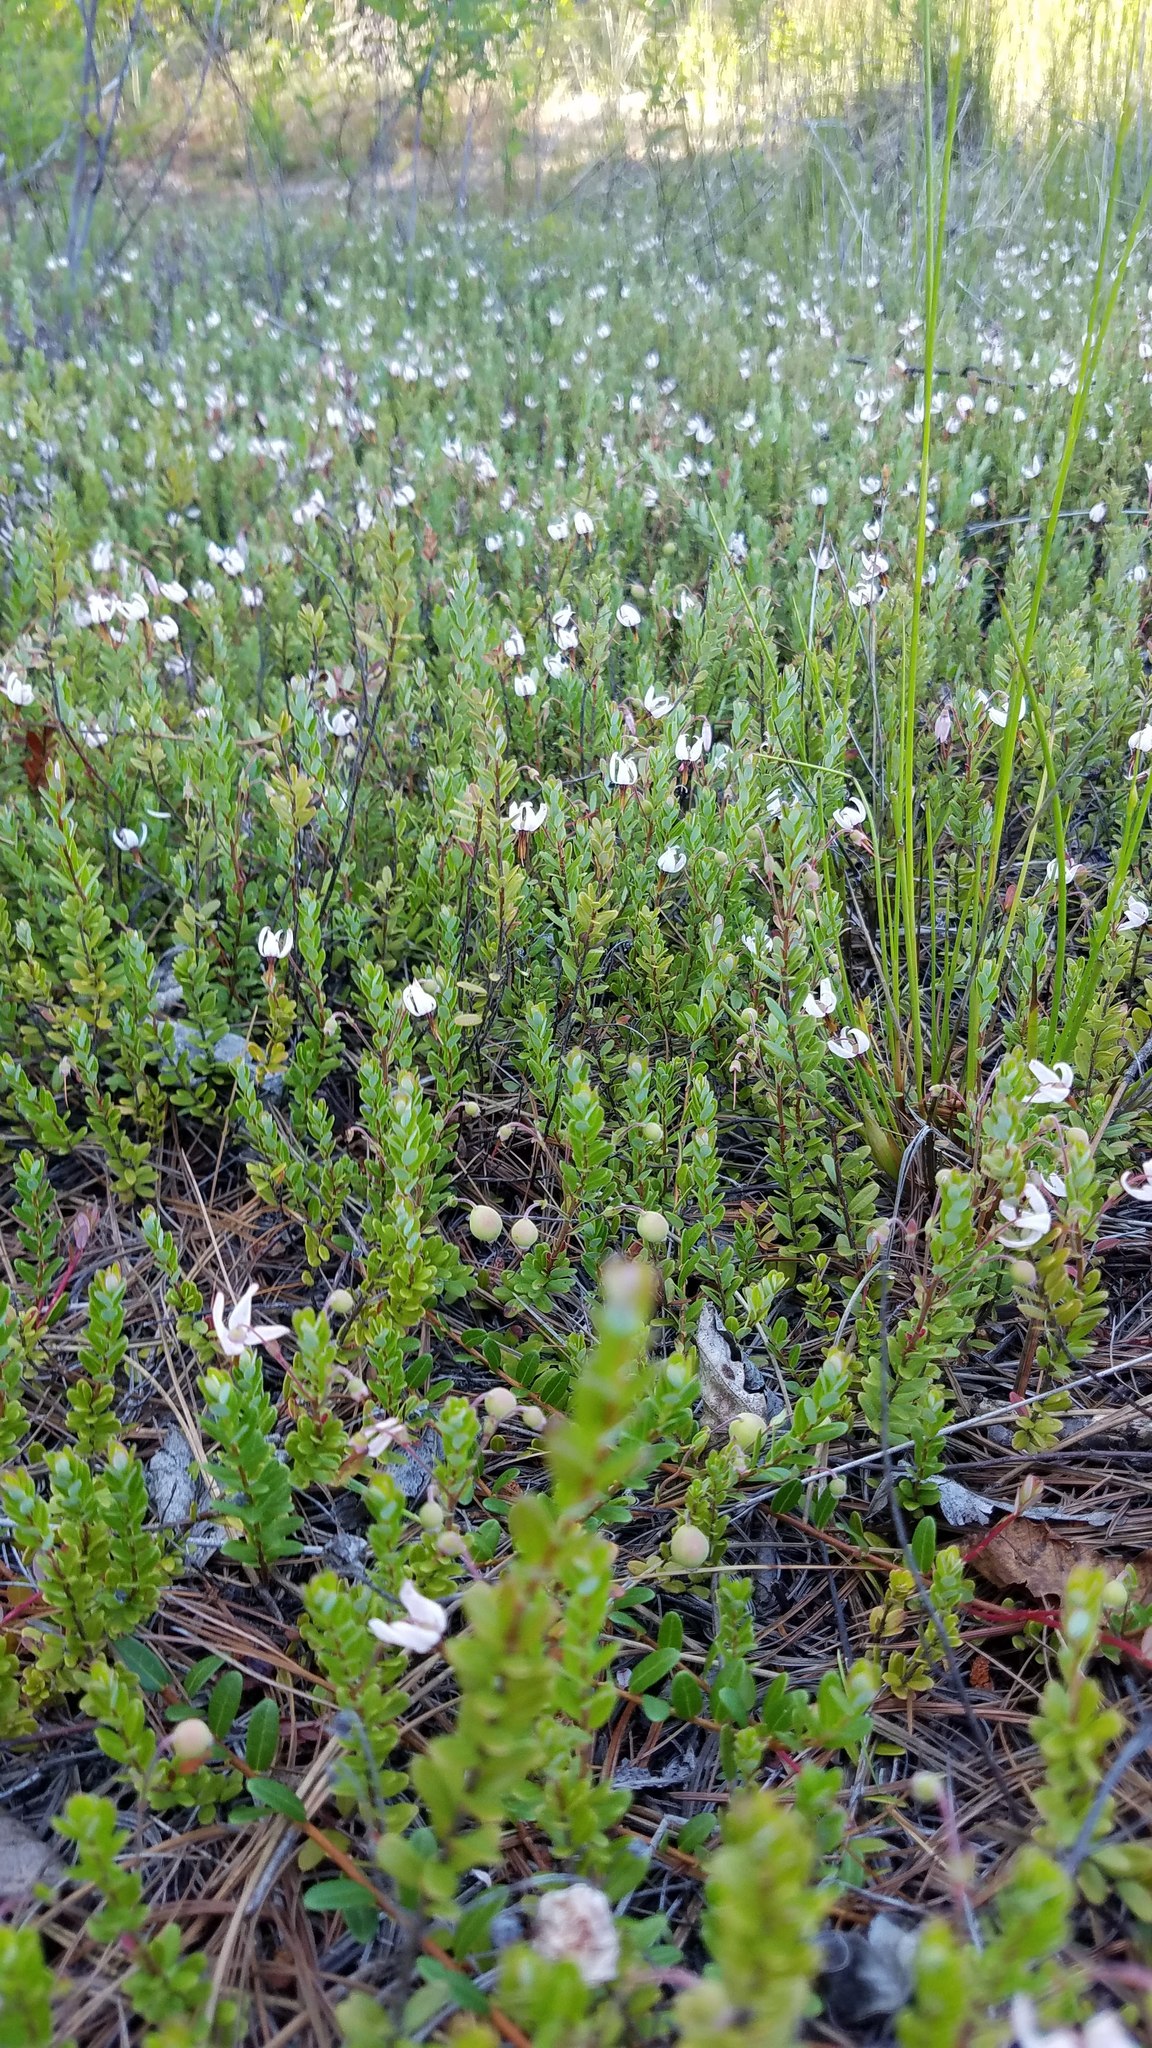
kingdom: Plantae
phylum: Tracheophyta
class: Magnoliopsida
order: Ericales
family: Ericaceae
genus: Vaccinium
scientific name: Vaccinium macrocarpon
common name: American cranberry
